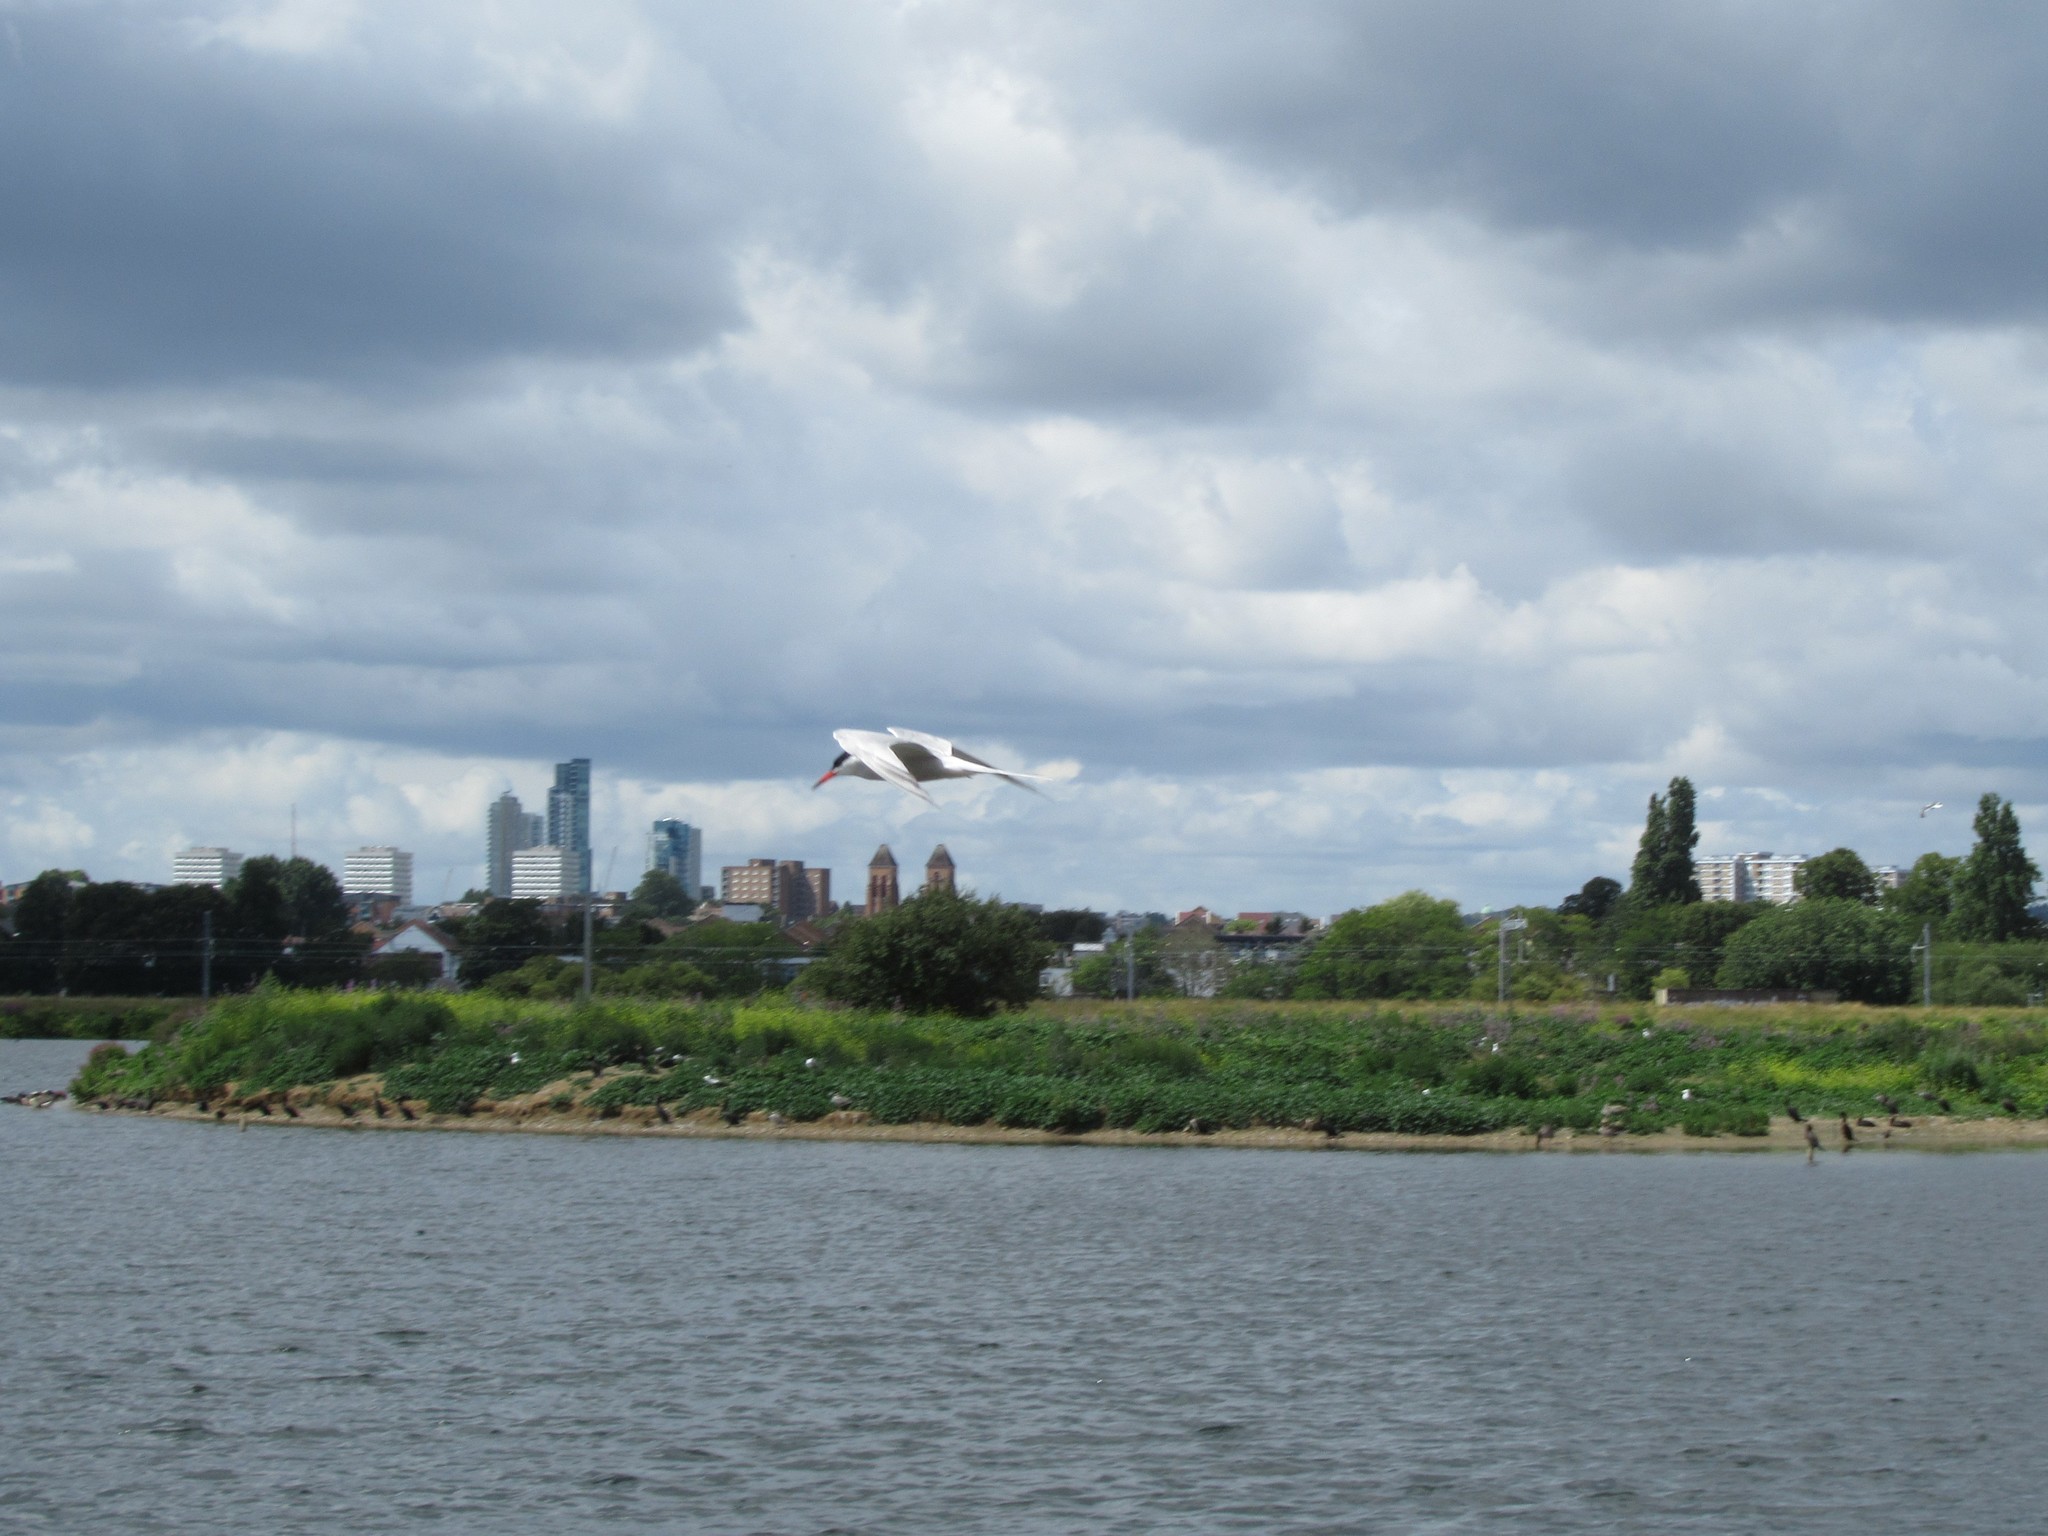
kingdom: Animalia
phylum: Chordata
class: Aves
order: Charadriiformes
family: Laridae
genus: Sterna
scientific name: Sterna hirundo
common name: Common tern
